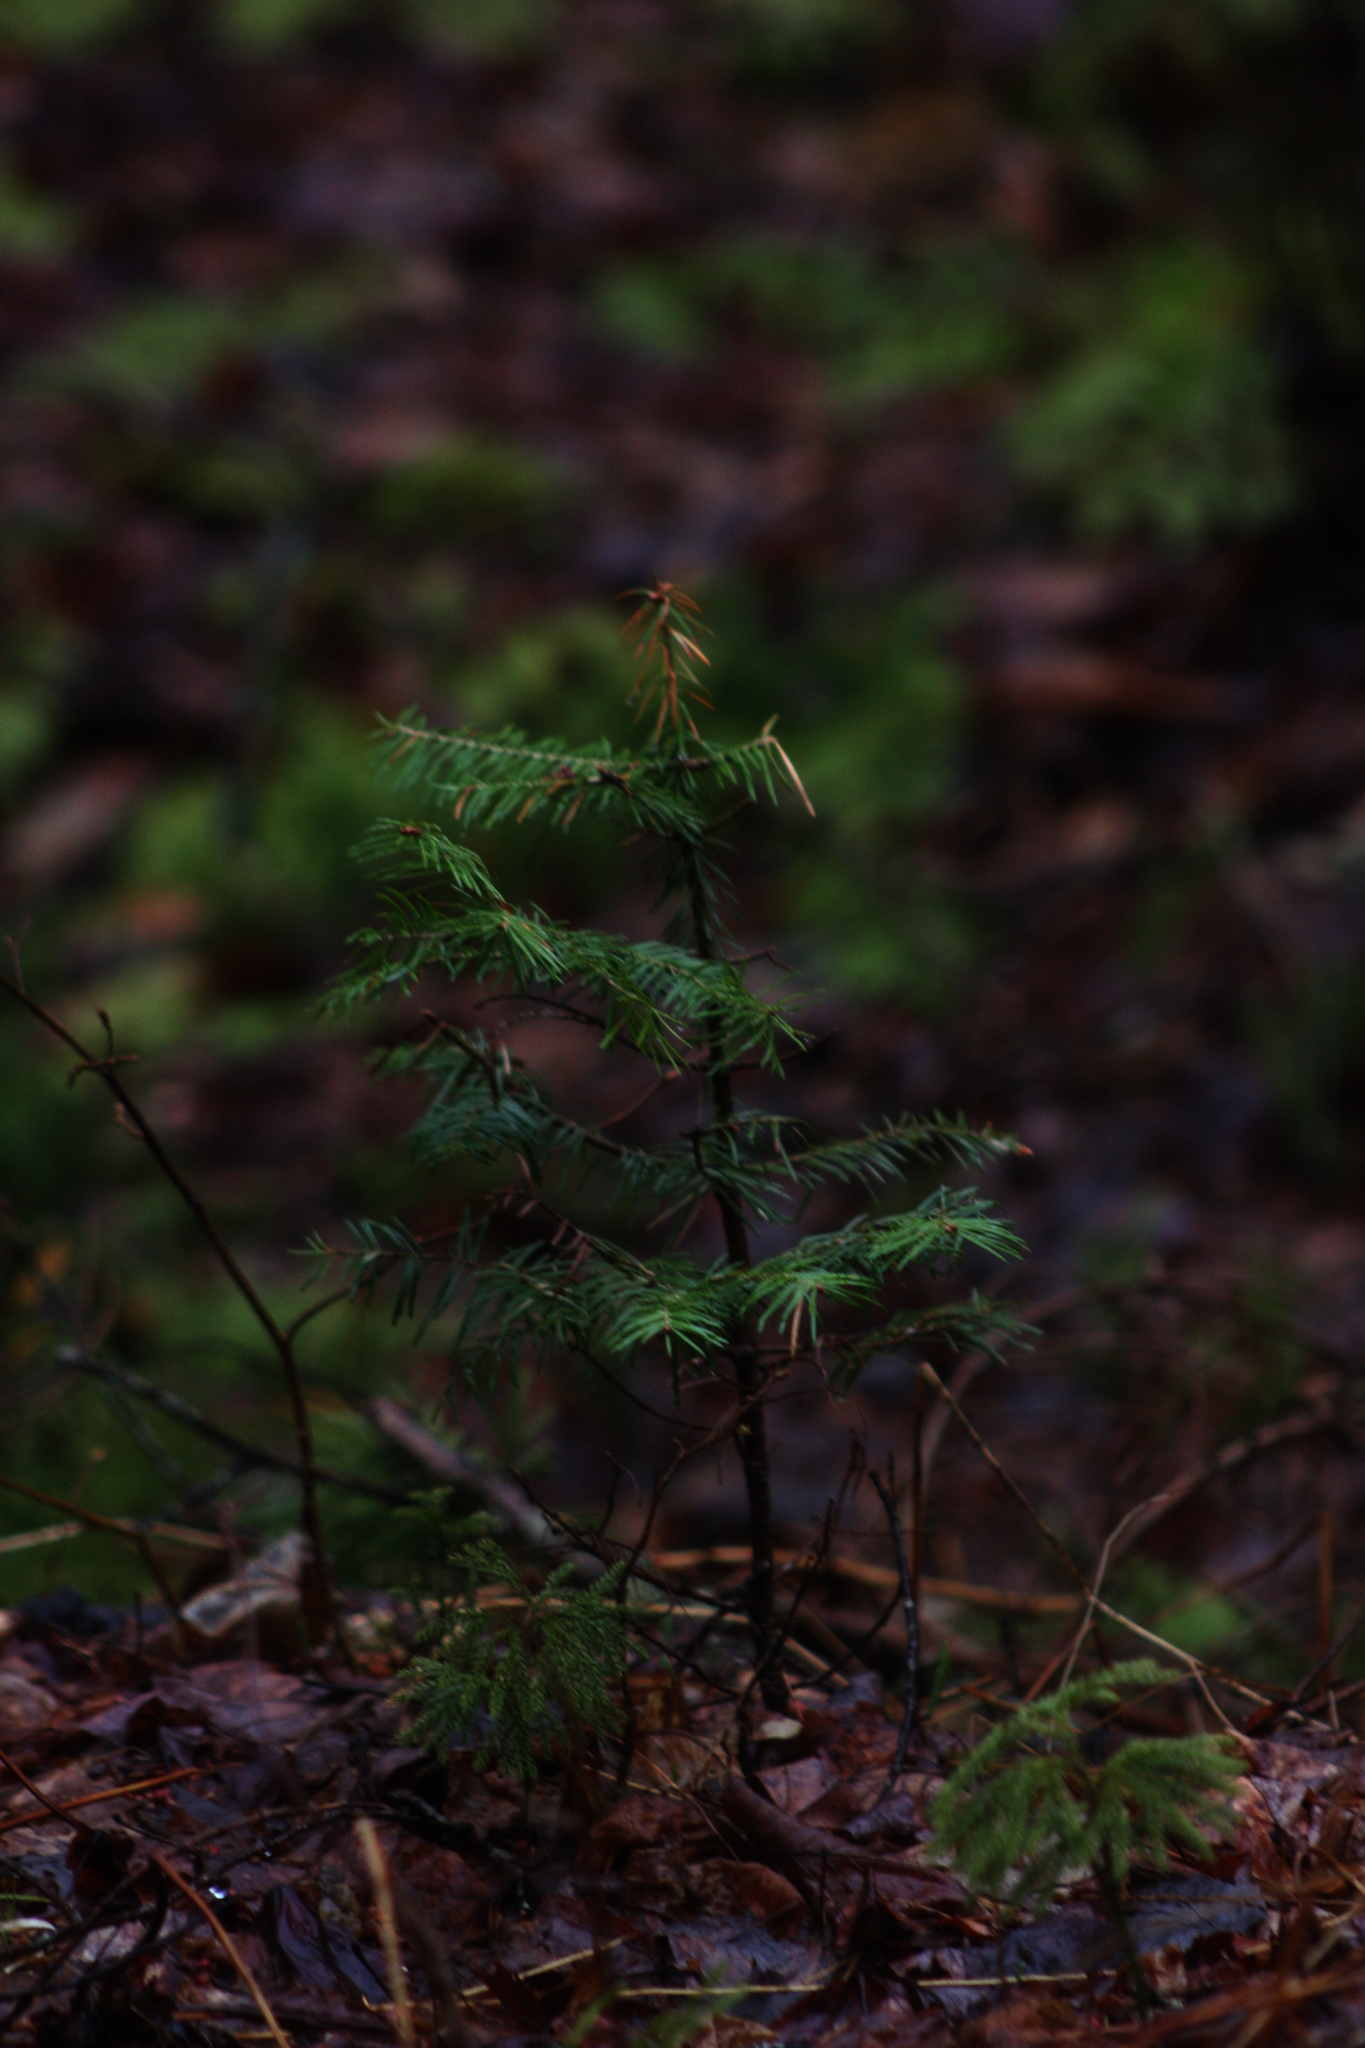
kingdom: Plantae
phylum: Tracheophyta
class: Pinopsida
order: Pinales
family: Pinaceae
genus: Abies
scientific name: Abies balsamea
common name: Balsam fir
